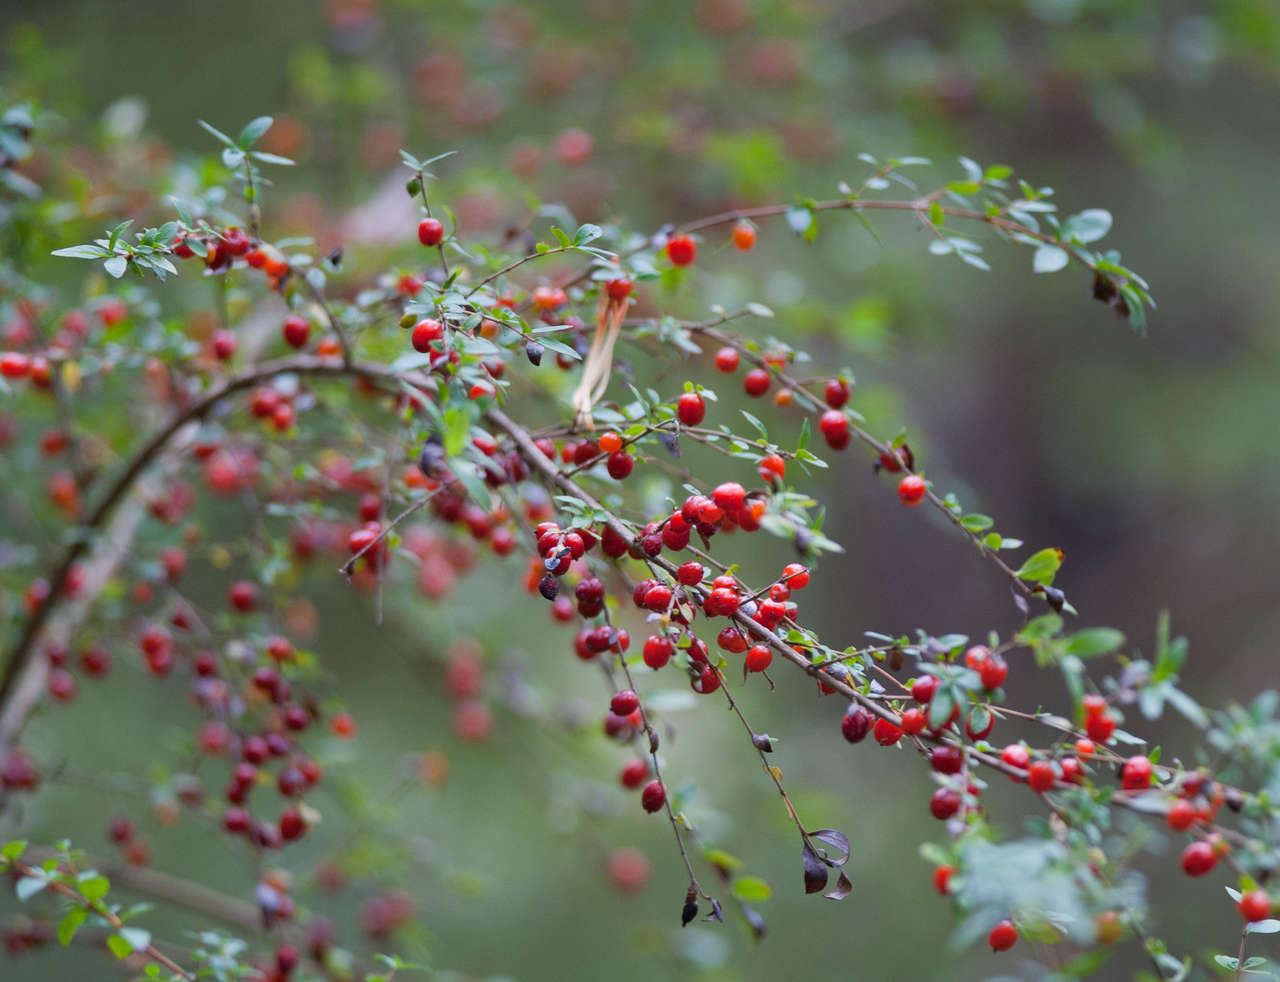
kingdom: Plantae
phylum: Tracheophyta
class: Magnoliopsida
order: Gentianales
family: Rubiaceae
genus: Coprosma
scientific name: Coprosma quadrifida
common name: Prickly currantbush
